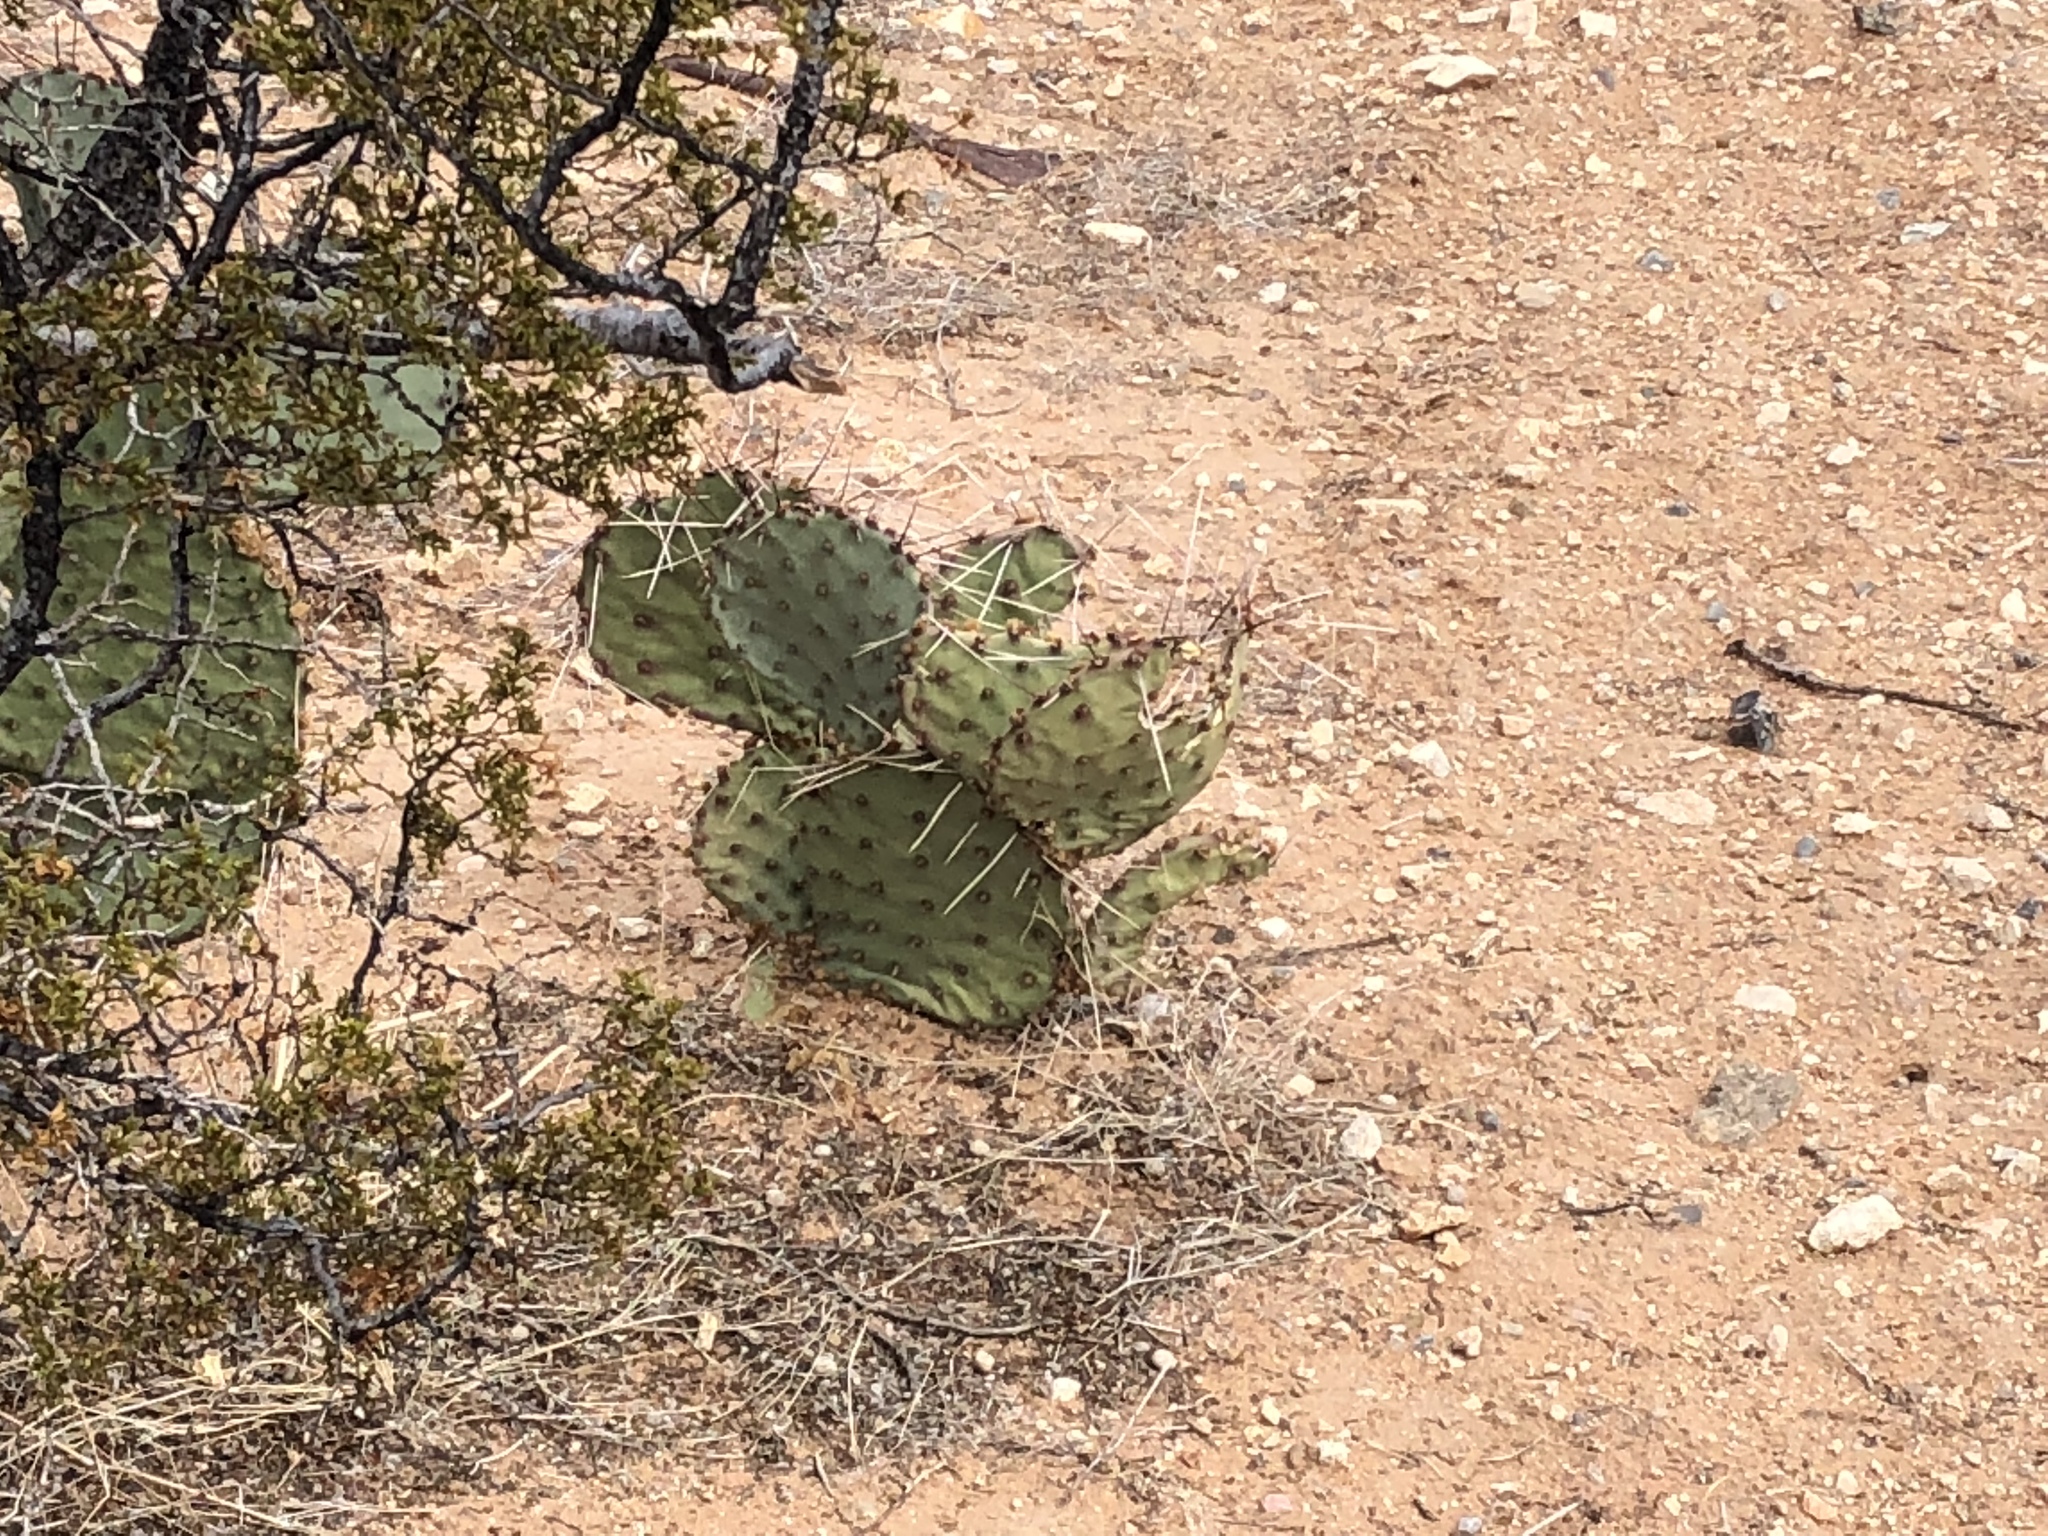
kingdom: Plantae
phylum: Tracheophyta
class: Magnoliopsida
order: Caryophyllales
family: Cactaceae
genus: Opuntia
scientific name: Opuntia macrocentra
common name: Purple prickly-pear
